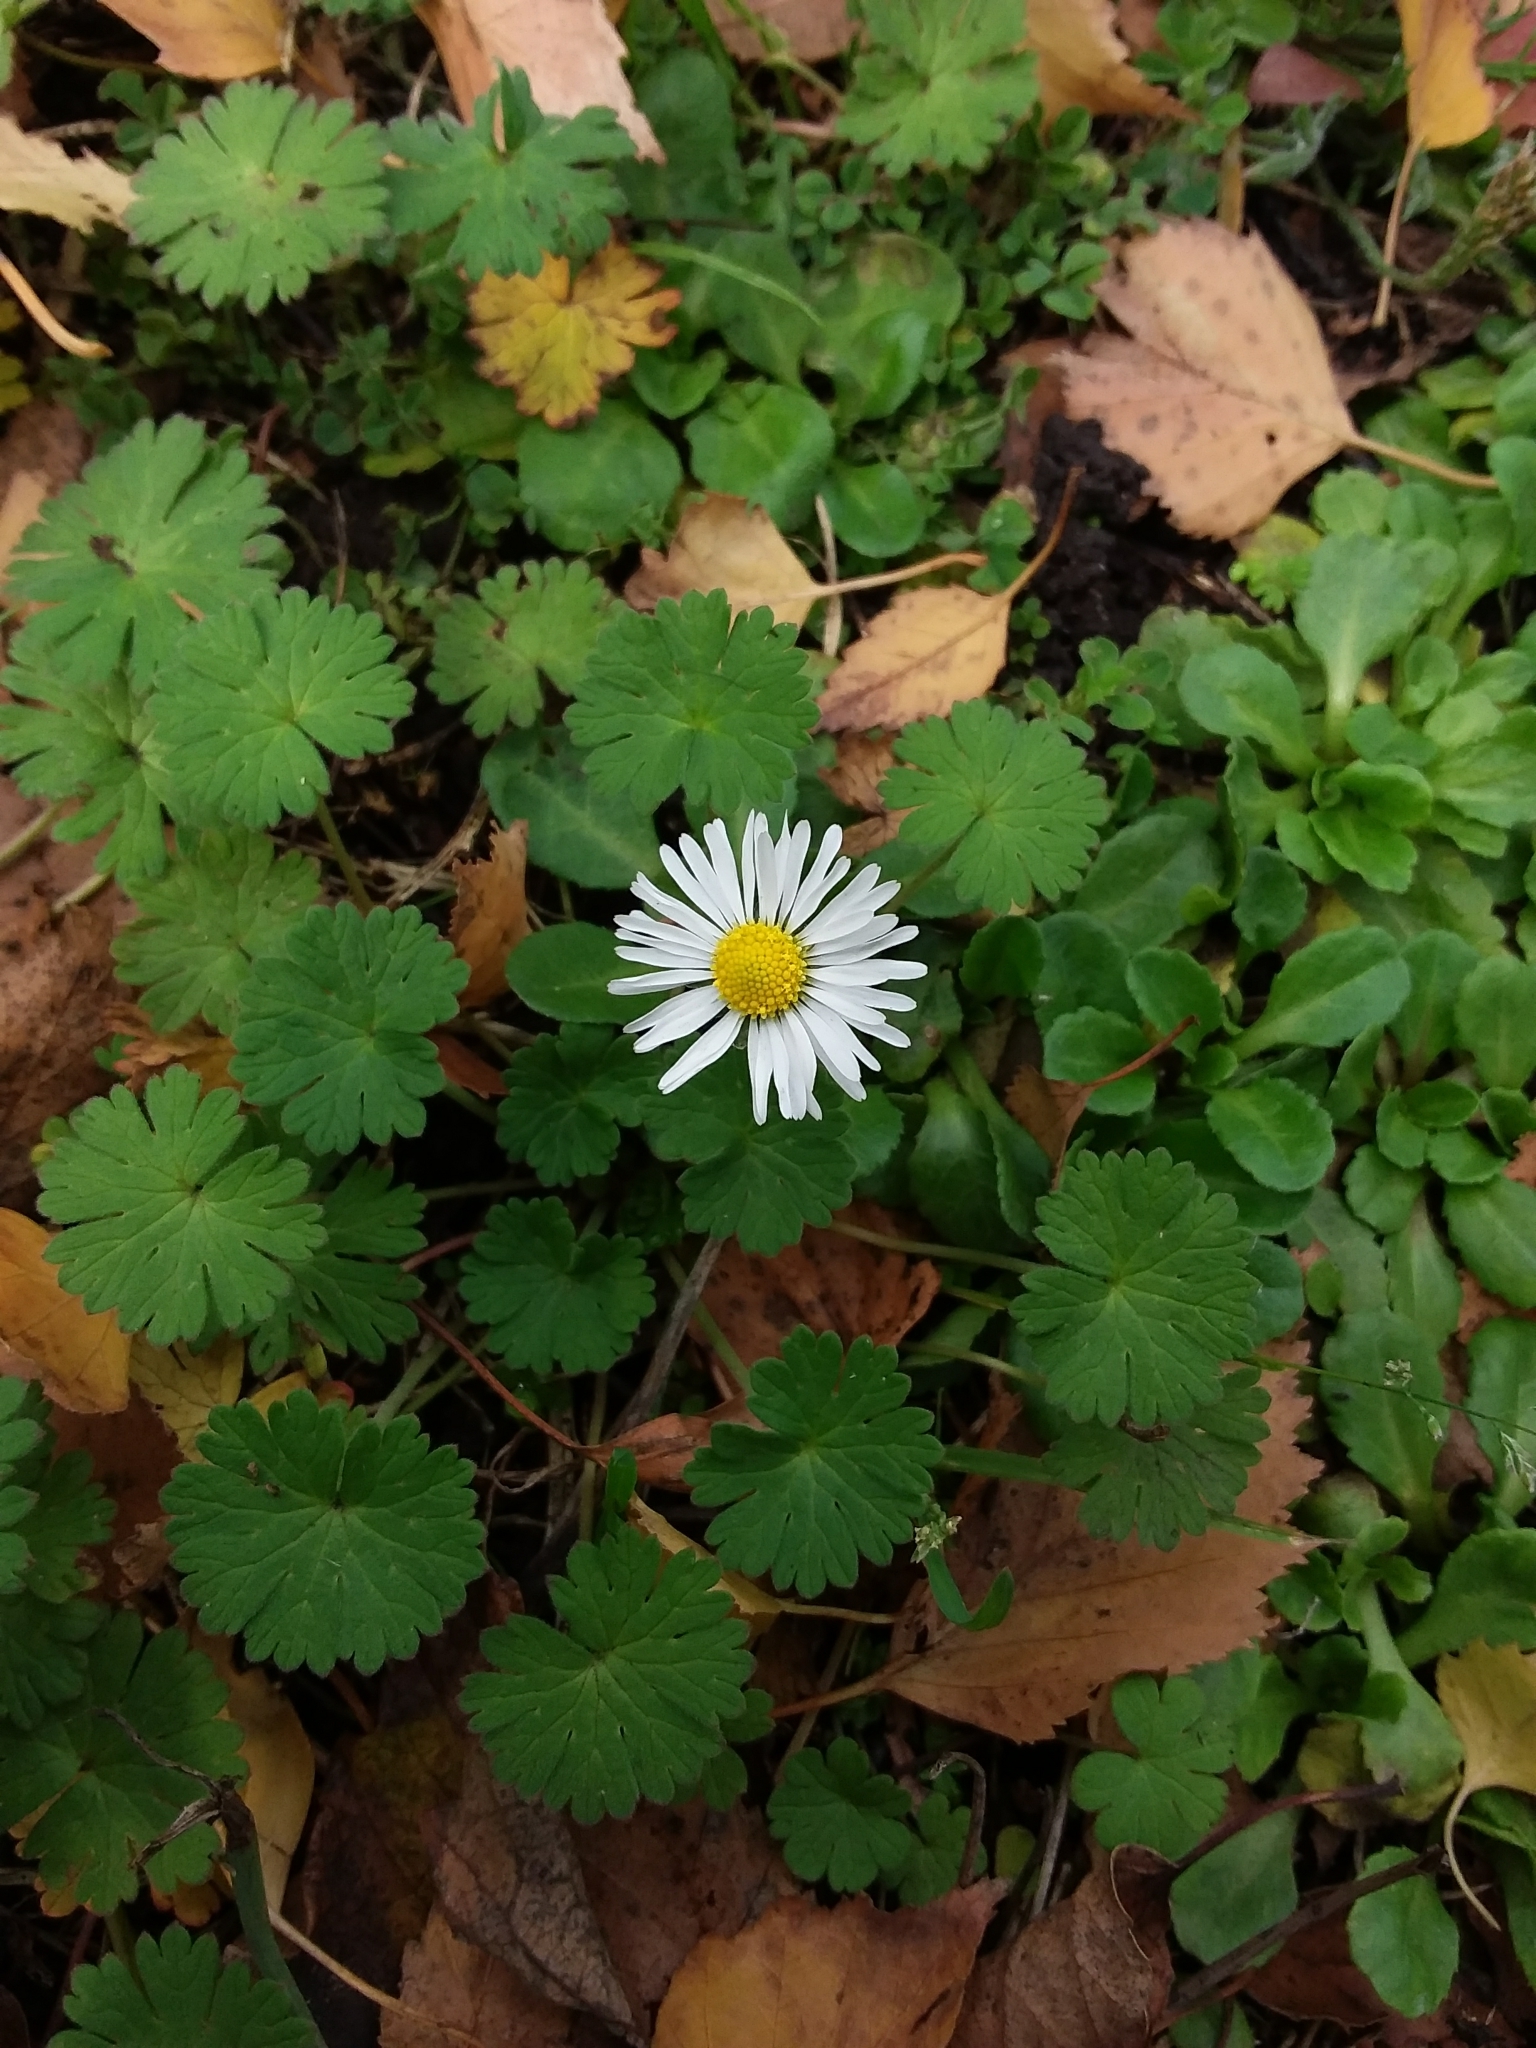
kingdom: Plantae
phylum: Tracheophyta
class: Magnoliopsida
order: Asterales
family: Asteraceae
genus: Bellis
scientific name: Bellis perennis
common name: Lawndaisy
